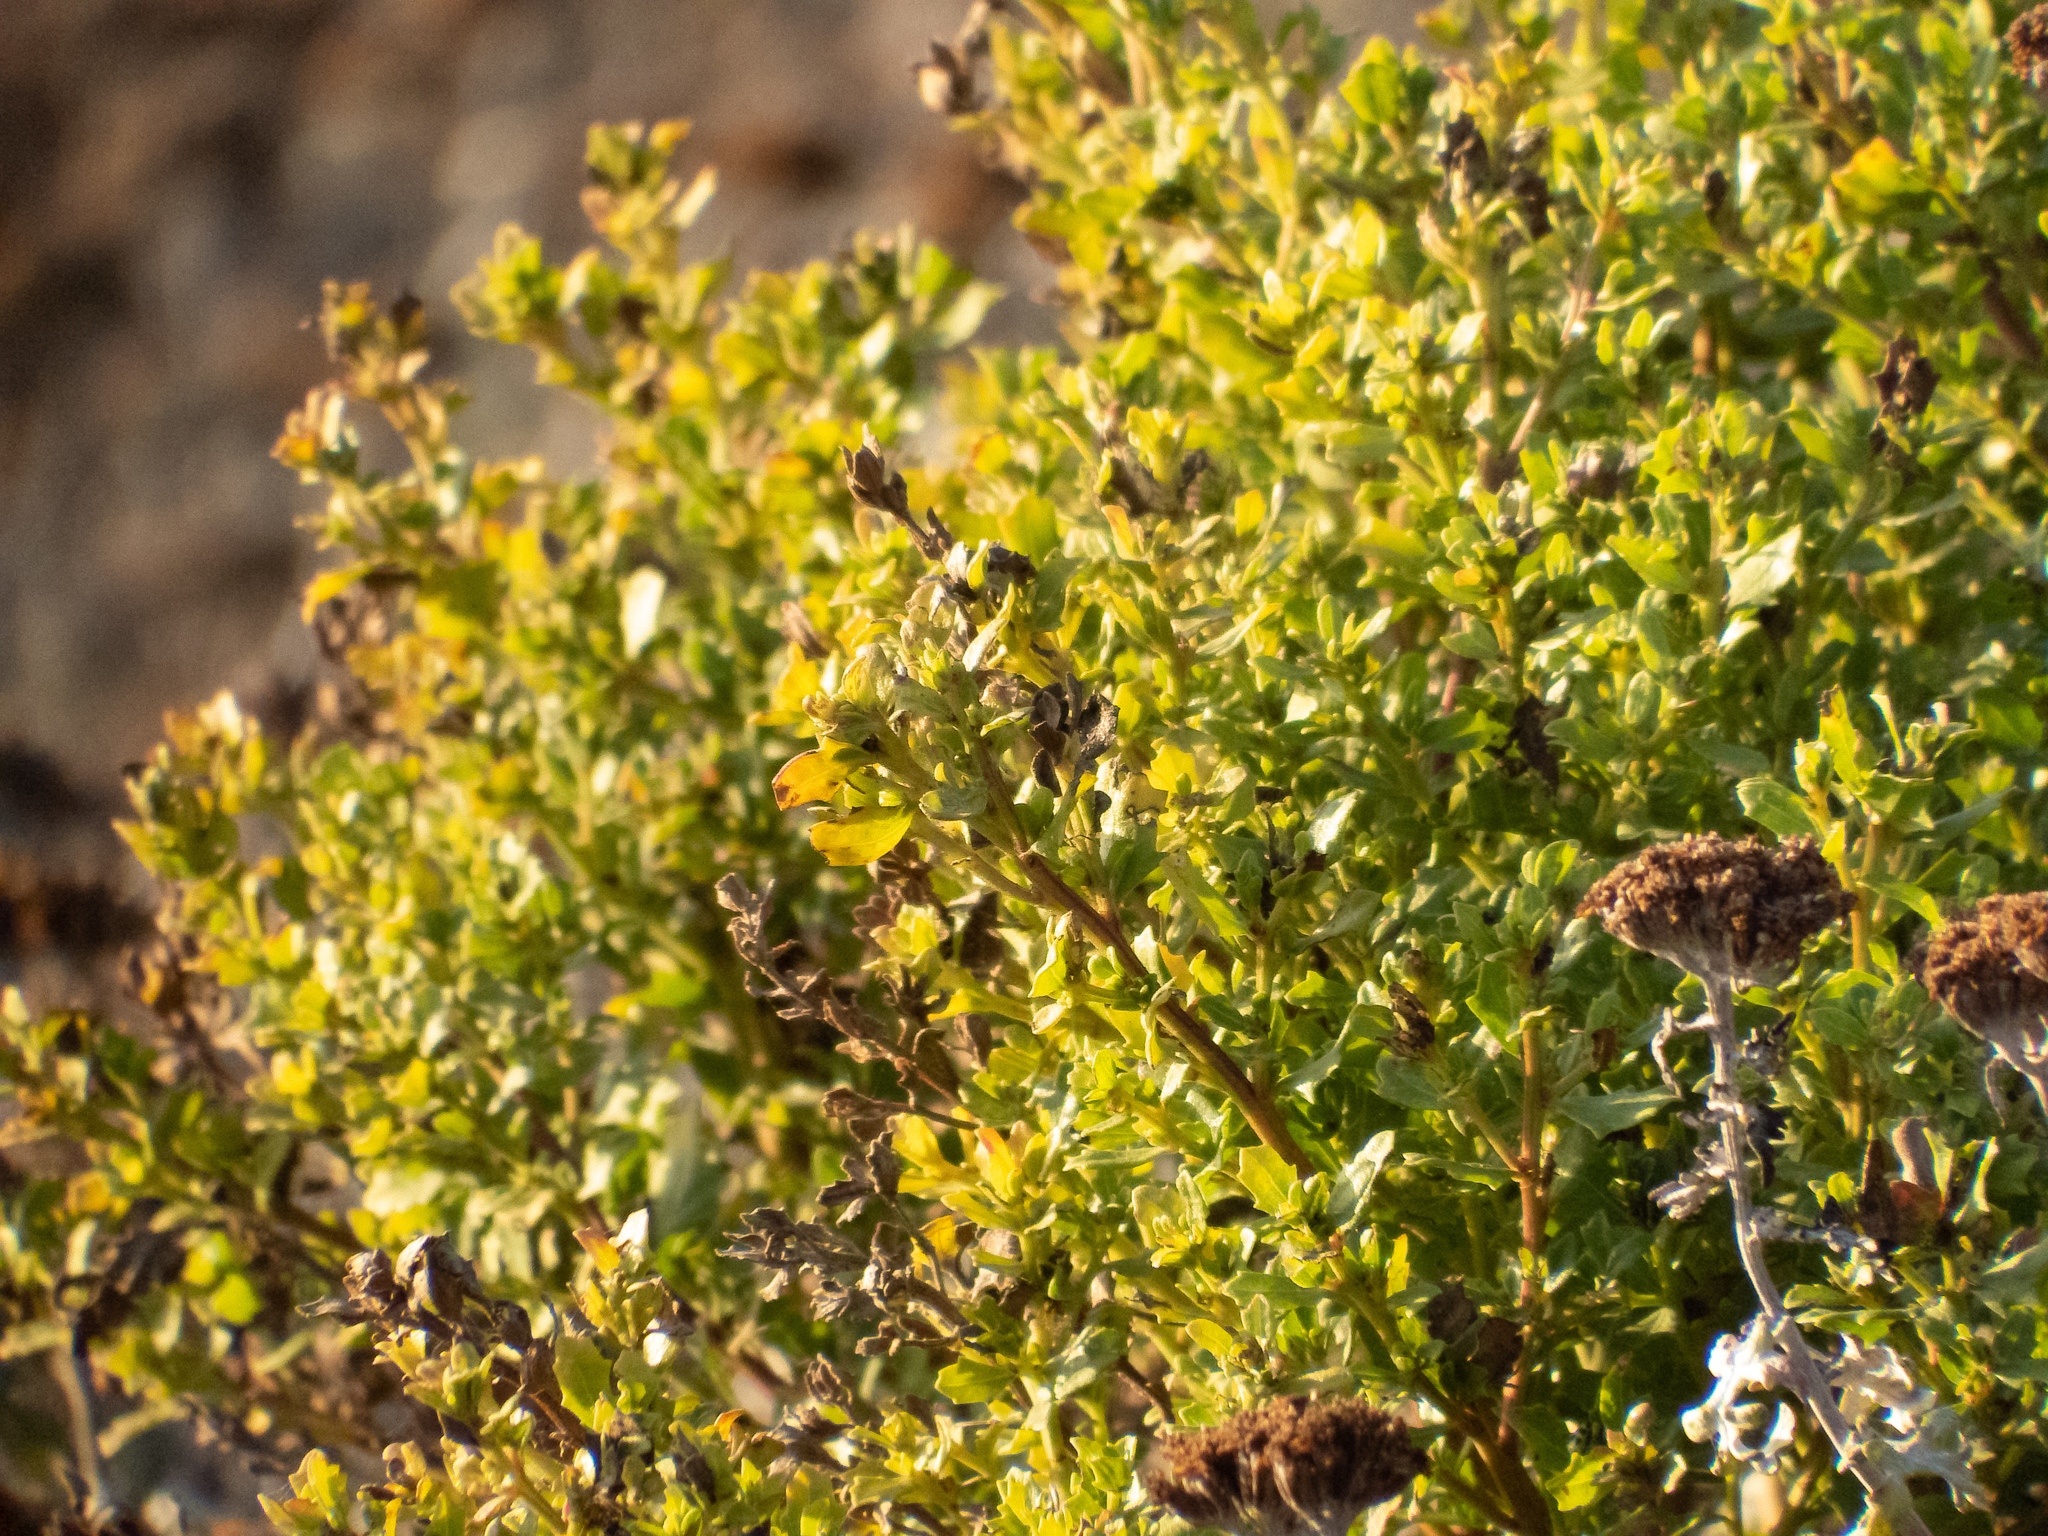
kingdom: Plantae
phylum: Tracheophyta
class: Magnoliopsida
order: Asterales
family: Asteraceae
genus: Baccharis
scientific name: Baccharis pilularis
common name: Coyotebrush
